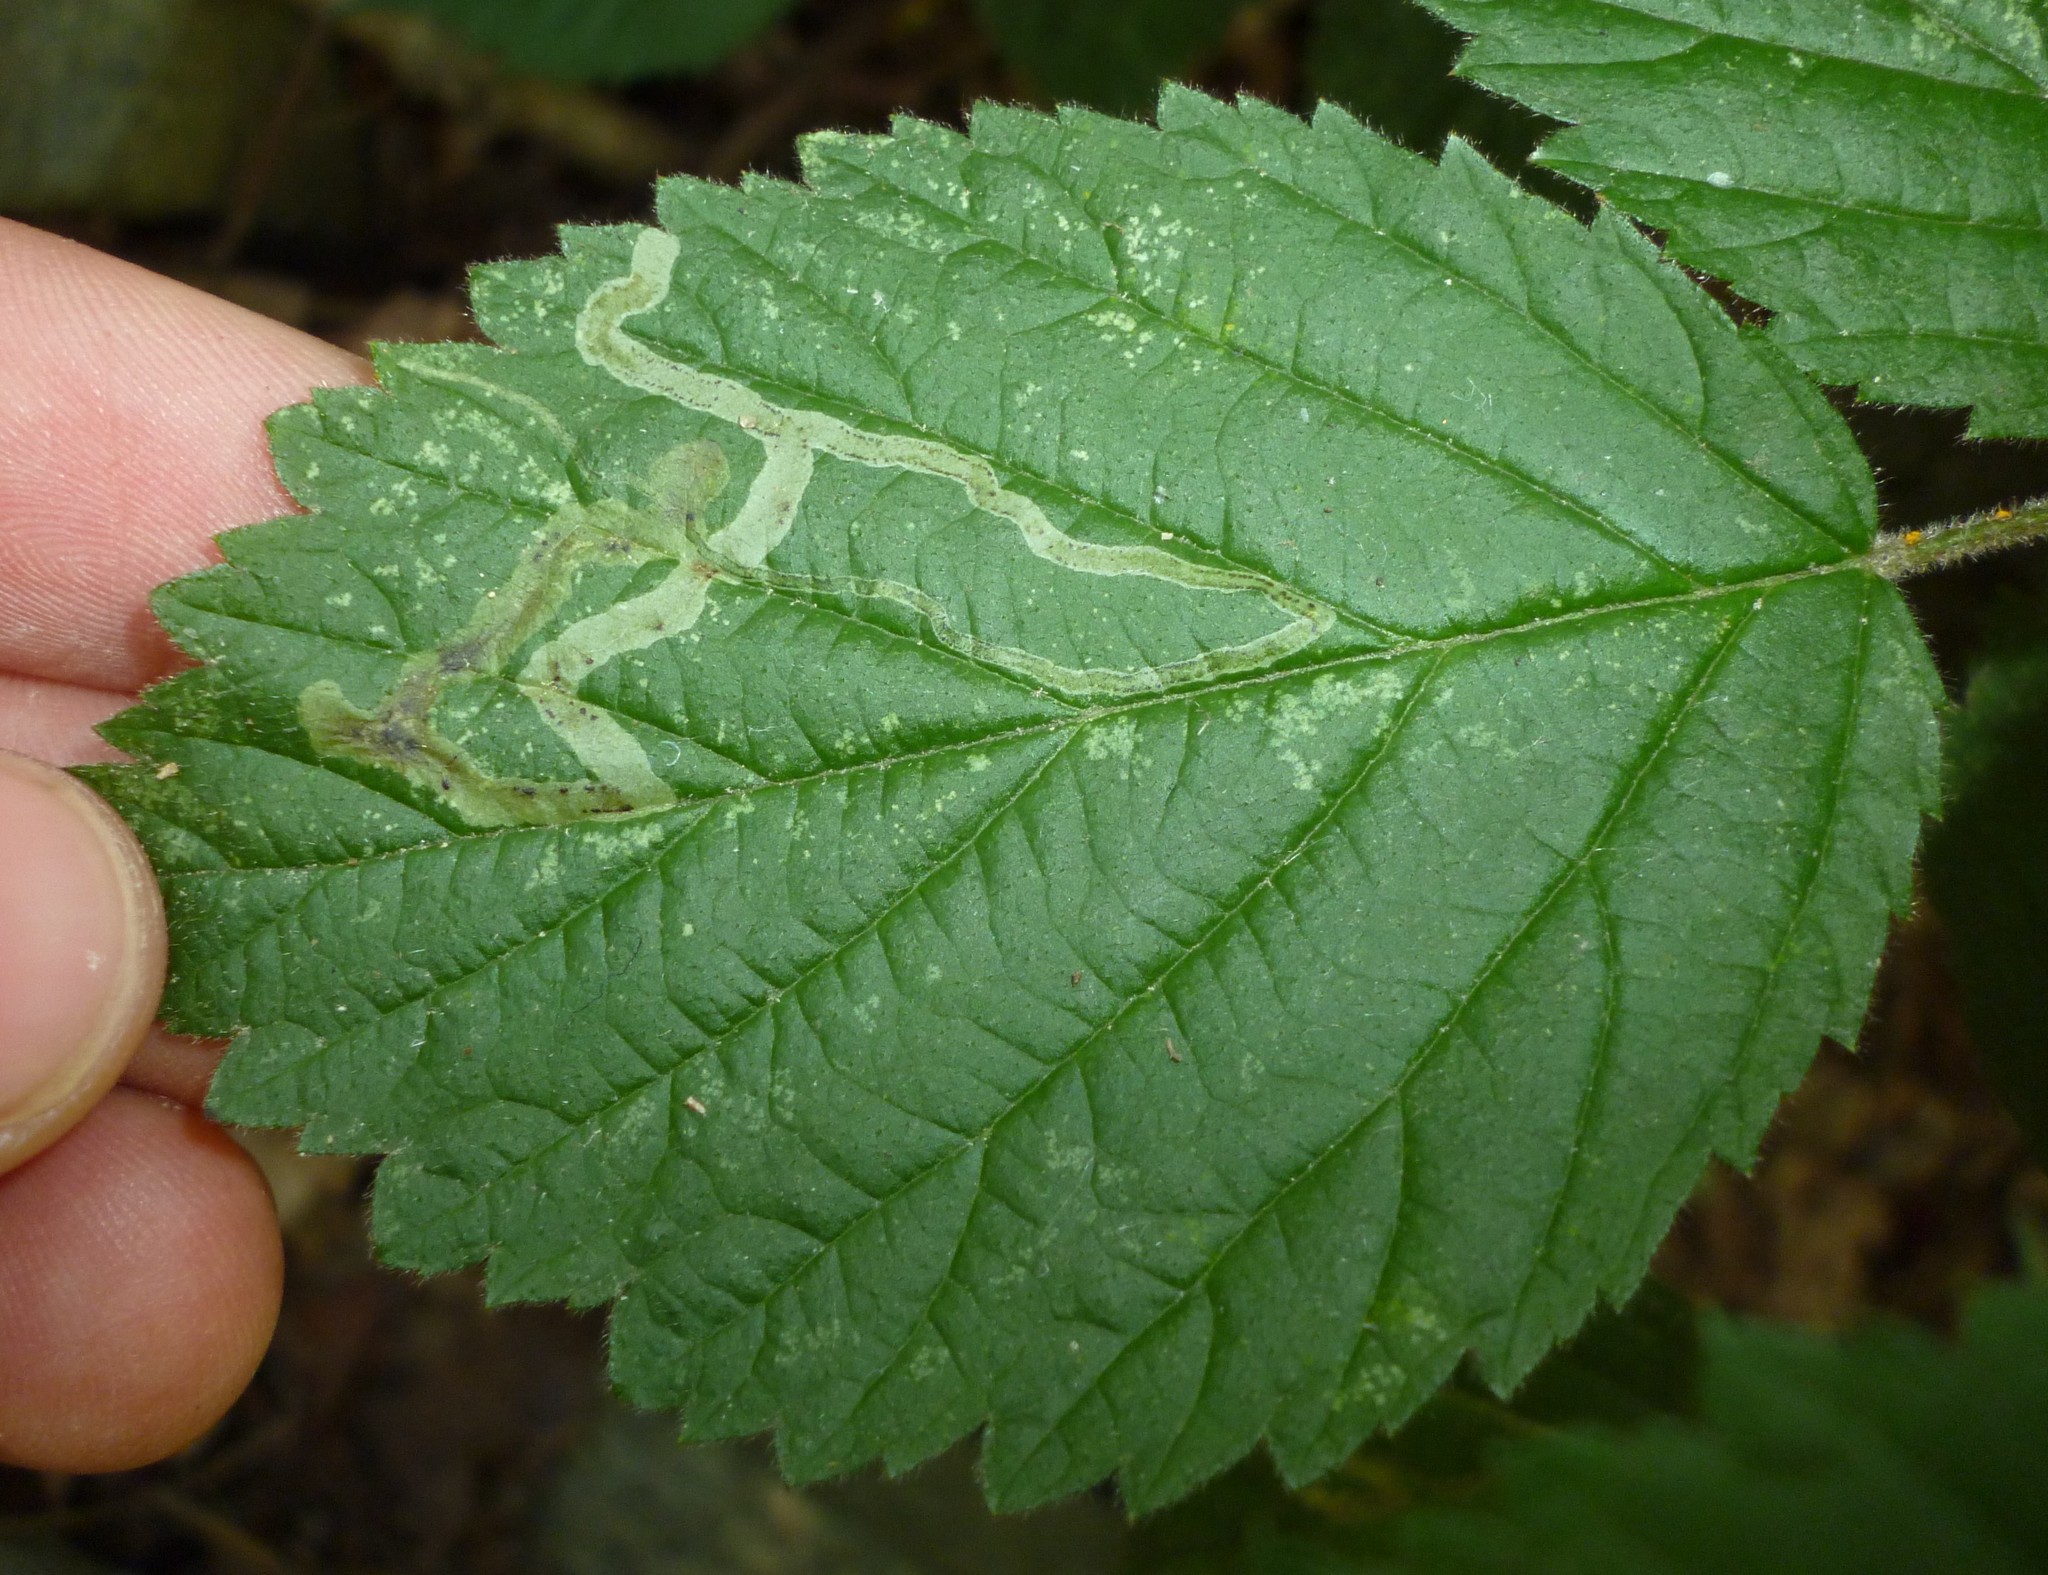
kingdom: Animalia
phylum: Arthropoda
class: Insecta
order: Diptera
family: Agromyzidae
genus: Agromyza
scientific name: Agromyza vockerothi
